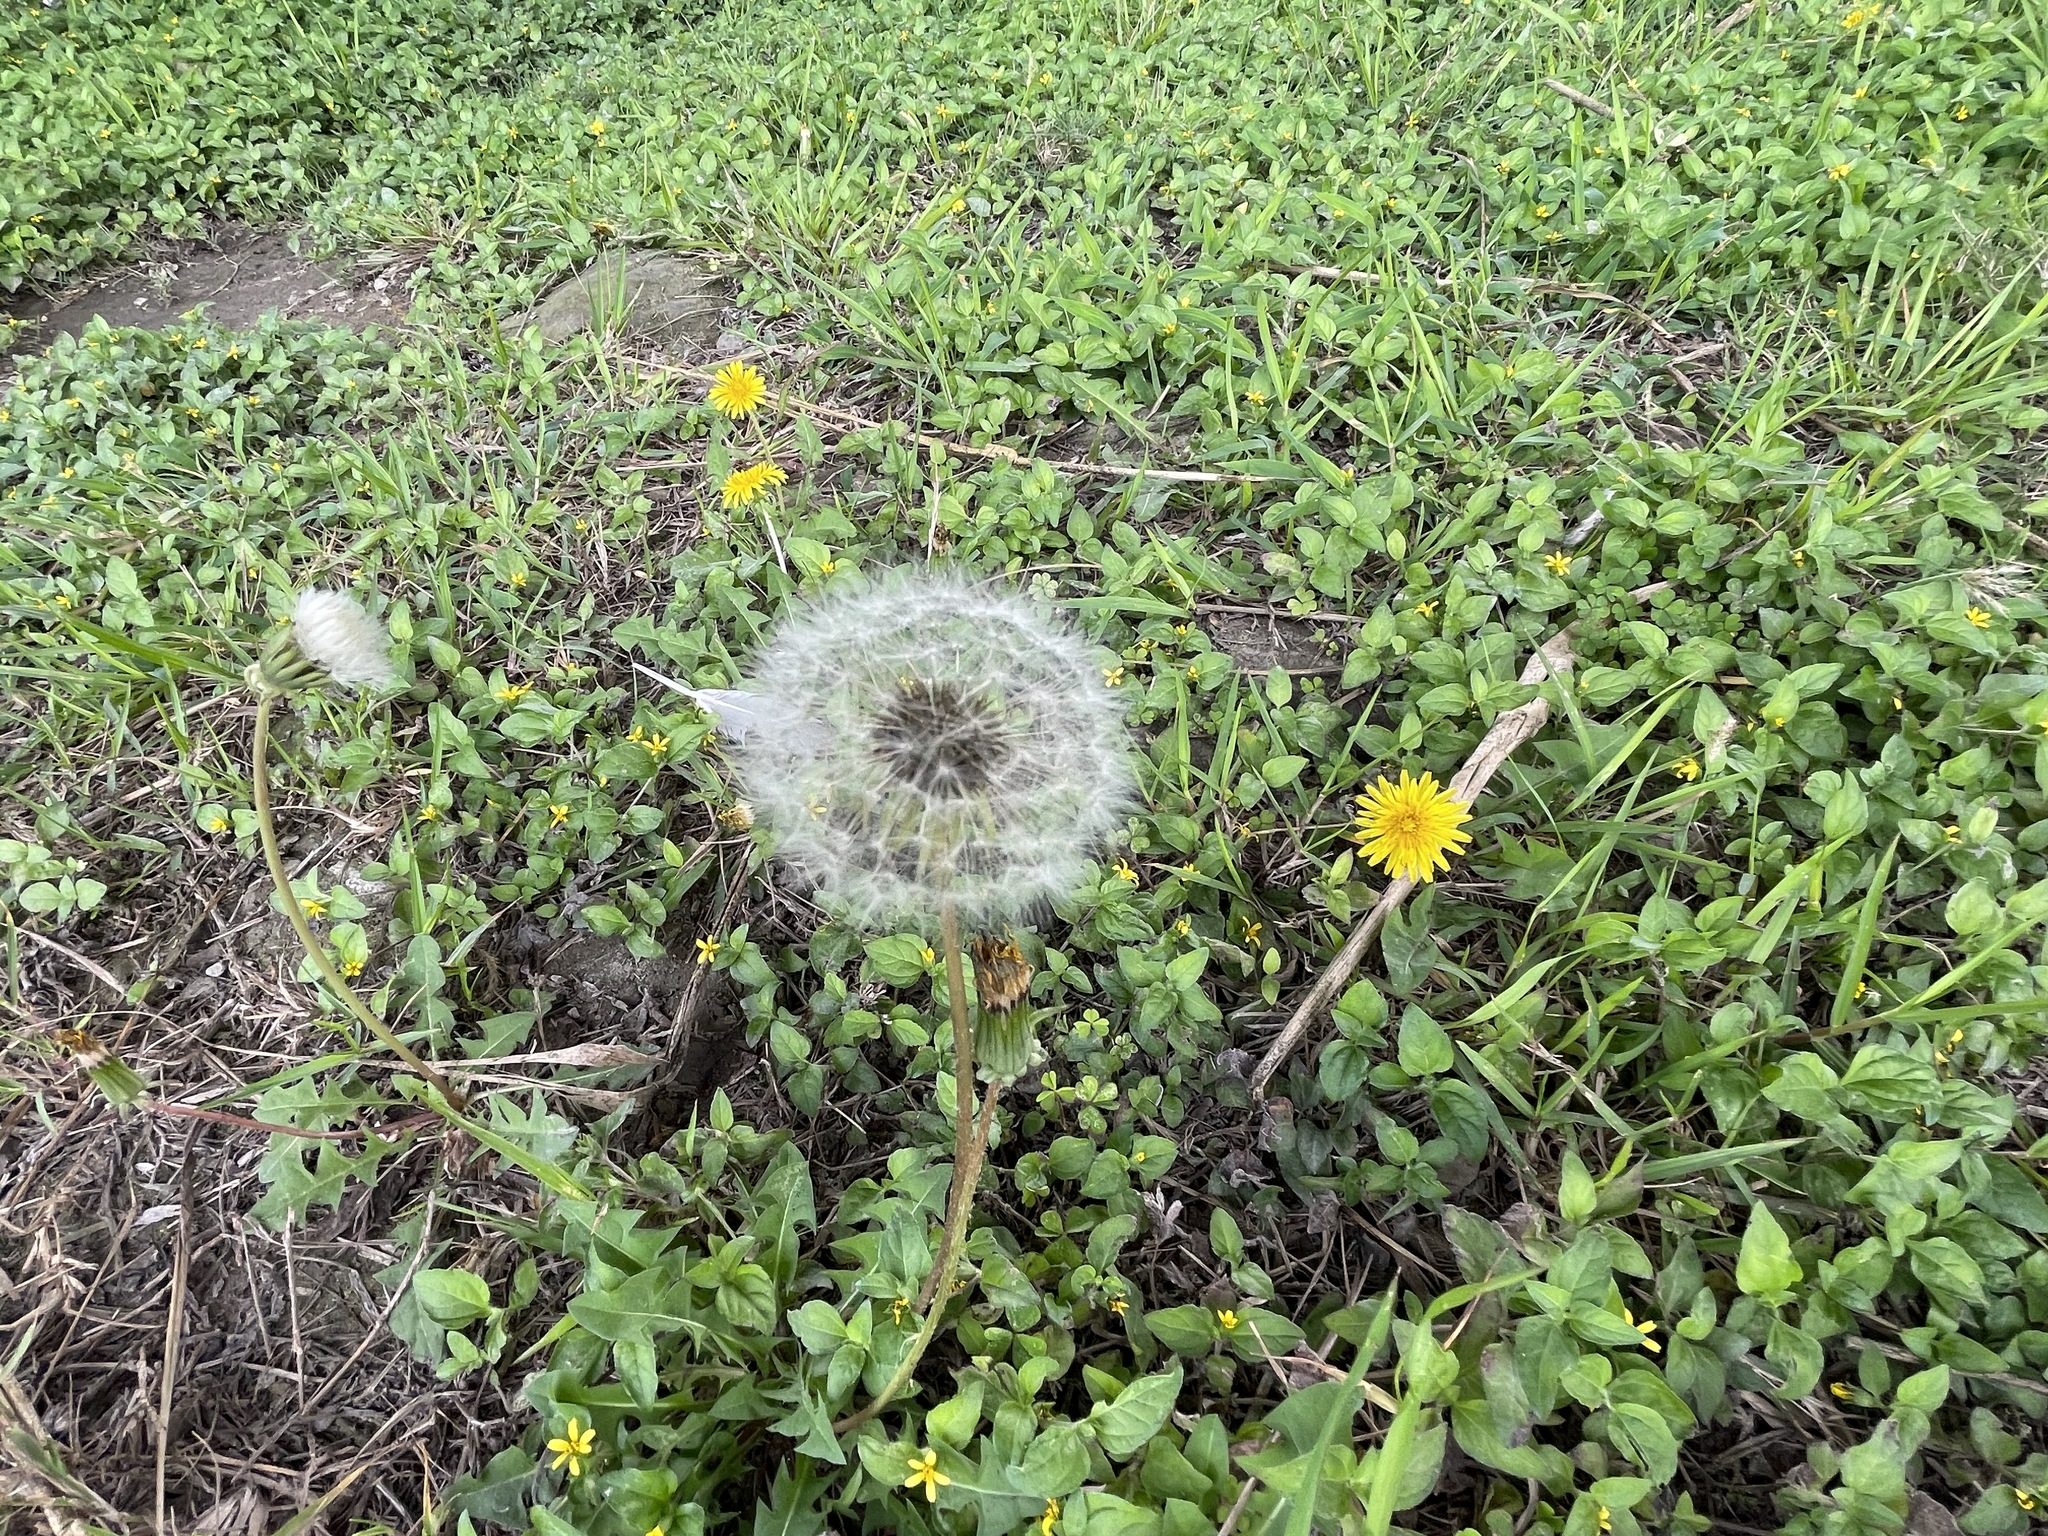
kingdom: Plantae
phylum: Tracheophyta
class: Magnoliopsida
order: Asterales
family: Asteraceae
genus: Taraxacum
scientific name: Taraxacum officinale
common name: Common dandelion
